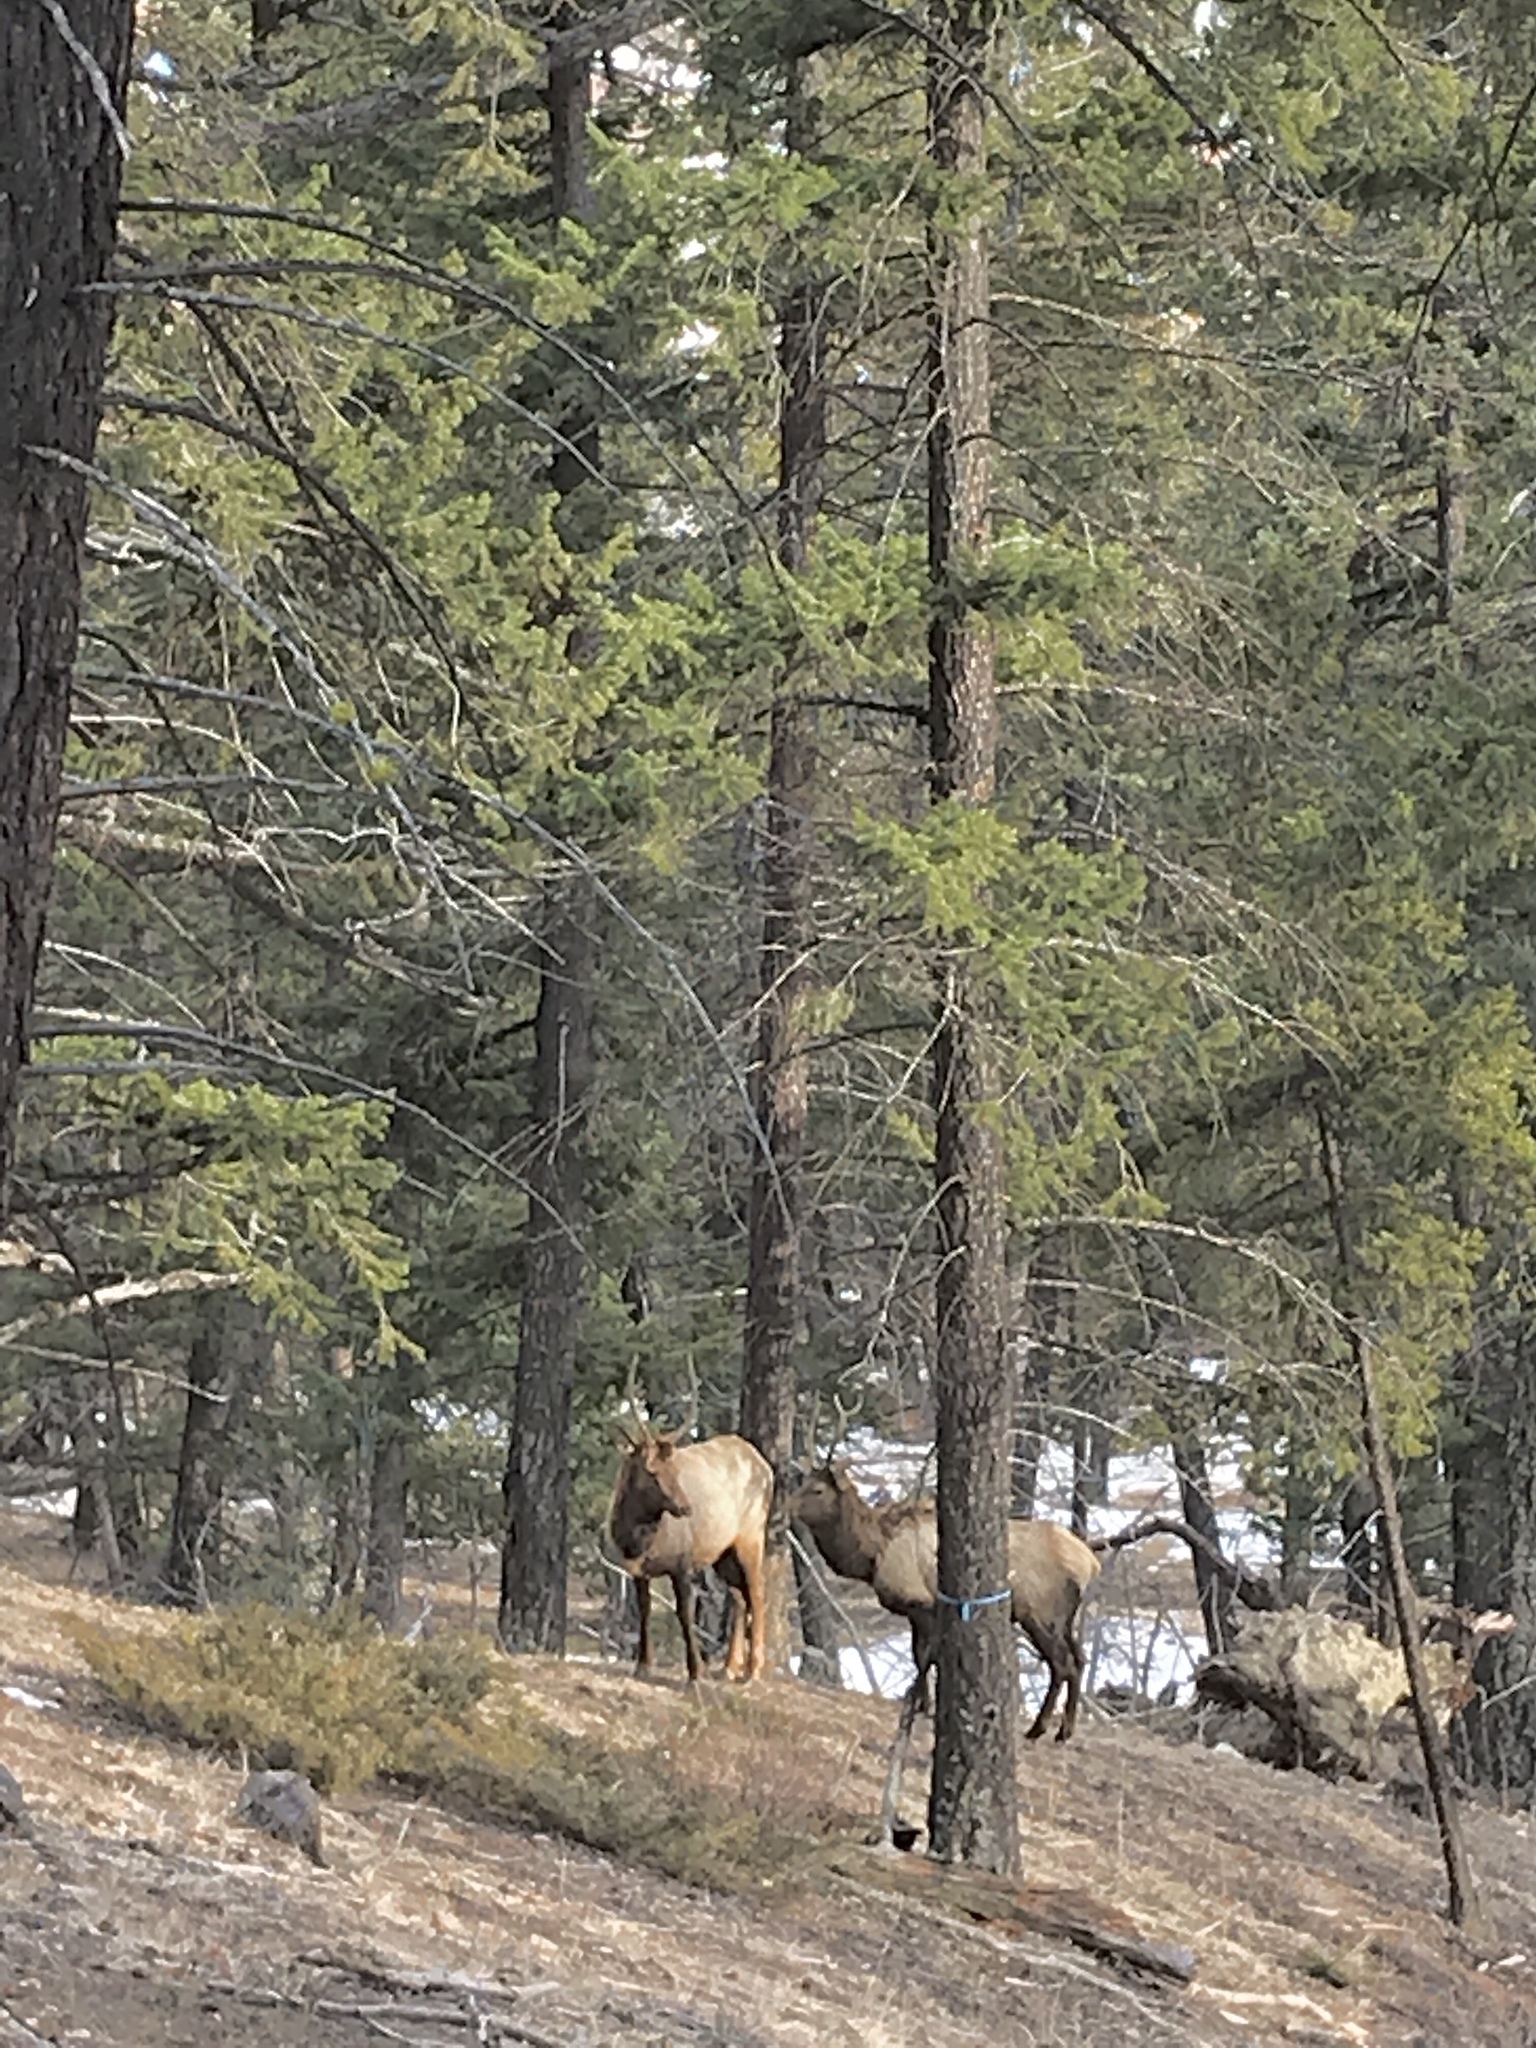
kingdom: Animalia
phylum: Chordata
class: Mammalia
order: Artiodactyla
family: Cervidae
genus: Cervus
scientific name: Cervus elaphus
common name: Red deer
